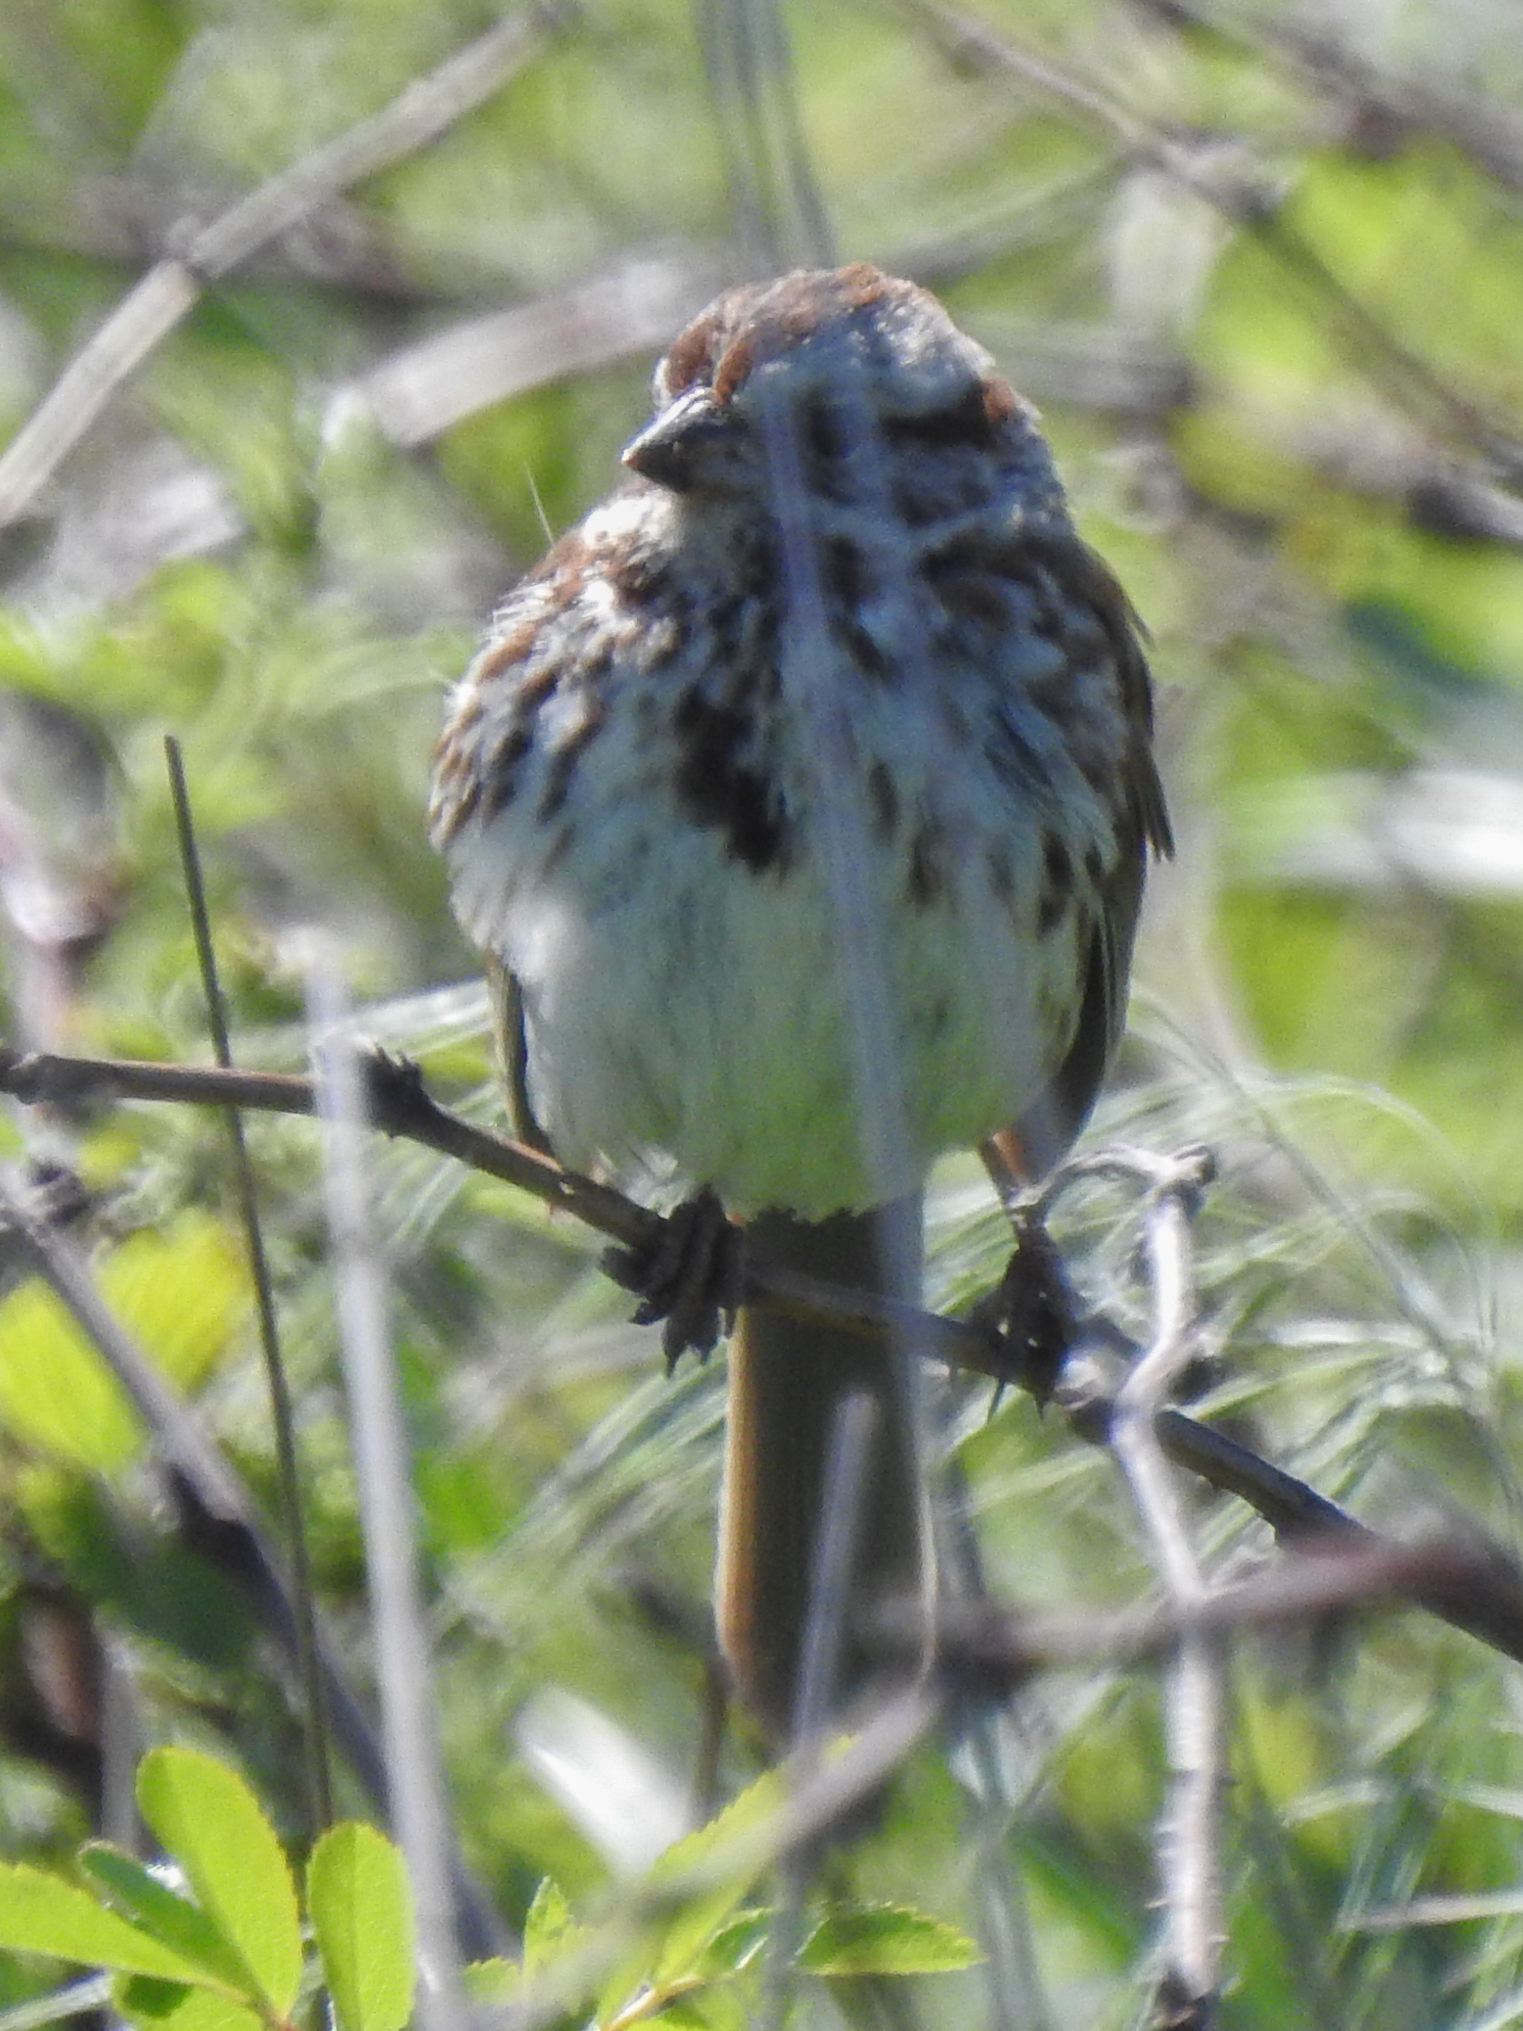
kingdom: Animalia
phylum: Chordata
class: Aves
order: Passeriformes
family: Passerellidae
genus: Melospiza
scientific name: Melospiza melodia
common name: Song sparrow
